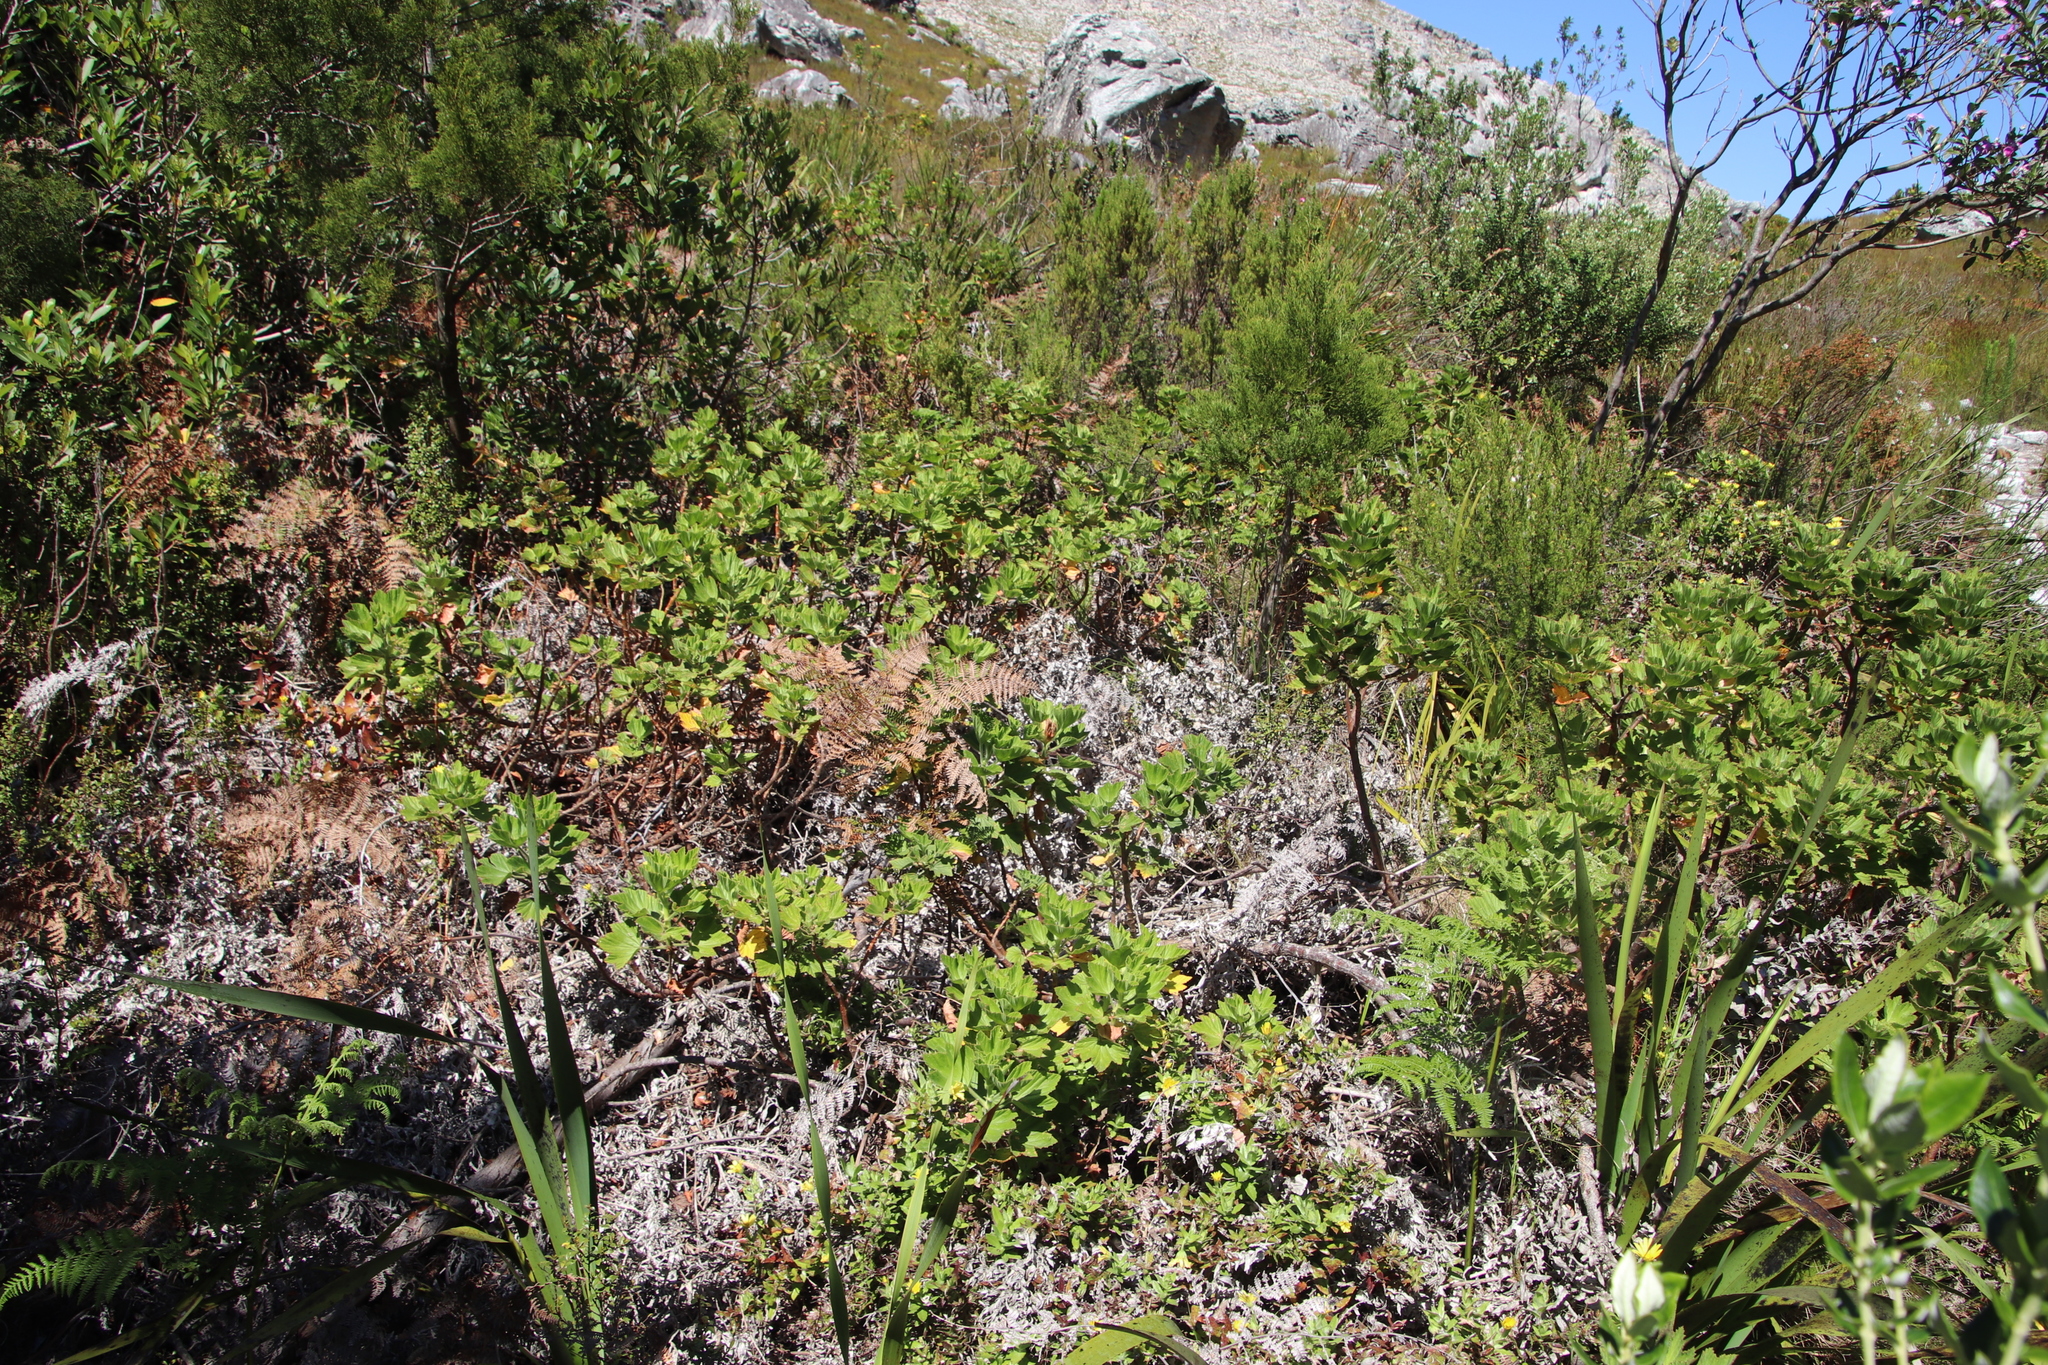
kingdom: Plantae
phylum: Tracheophyta
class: Polypodiopsida
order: Polypodiales
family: Dennstaedtiaceae
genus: Pteridium
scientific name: Pteridium aquilinum
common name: Bracken
